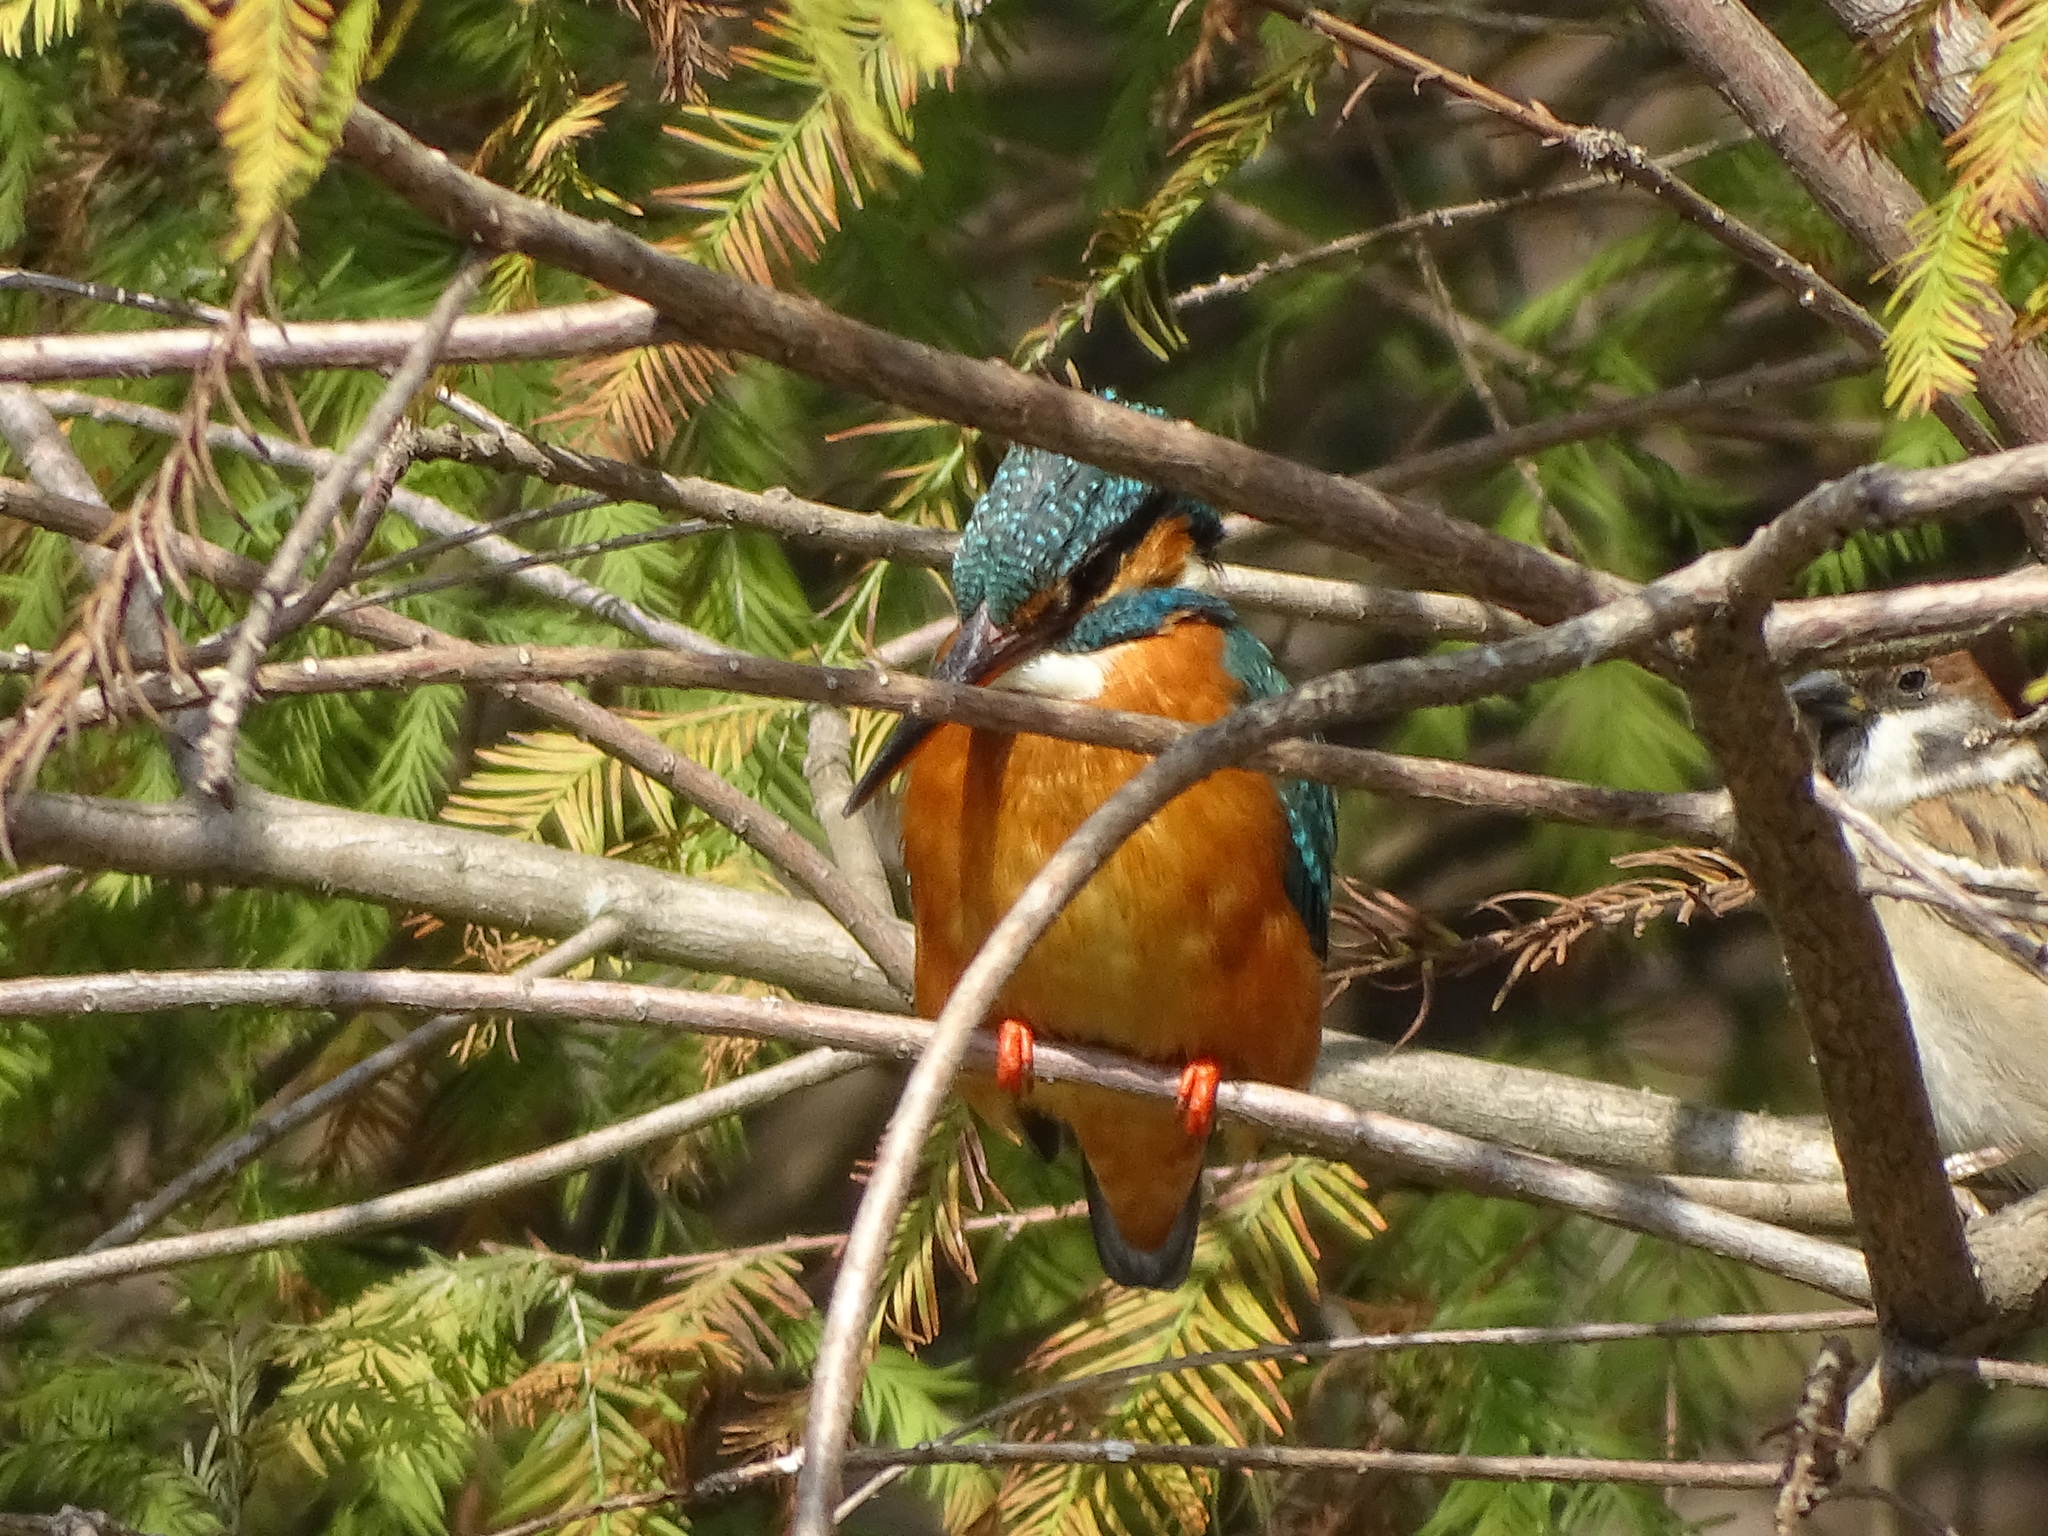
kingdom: Animalia
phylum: Chordata
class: Aves
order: Coraciiformes
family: Alcedinidae
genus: Alcedo
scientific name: Alcedo atthis
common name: Common kingfisher
